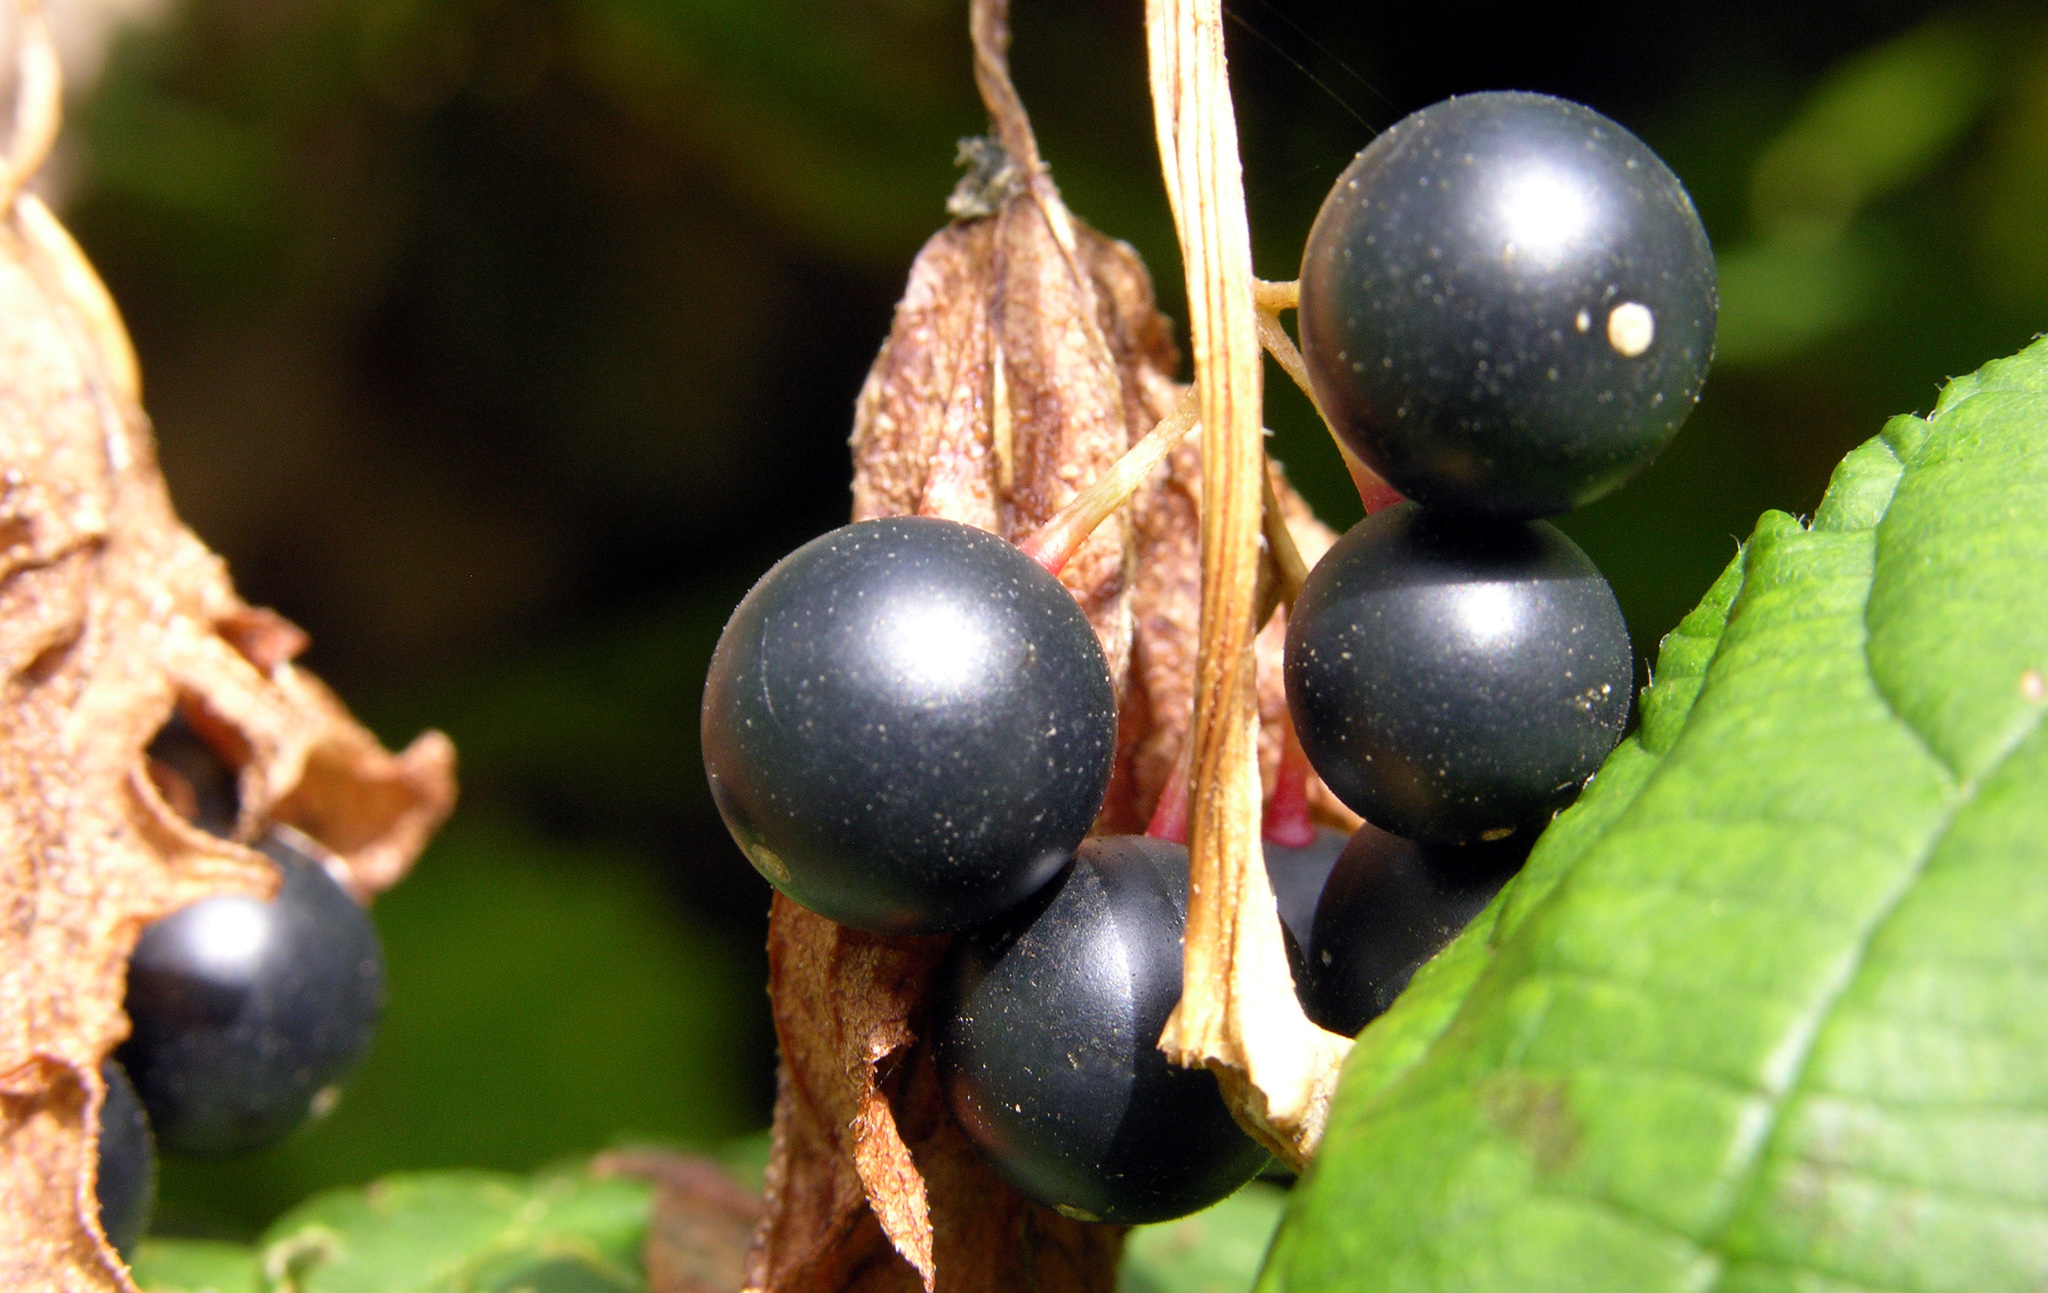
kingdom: Plantae
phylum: Tracheophyta
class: Magnoliopsida
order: Cucurbitales
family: Cucurbitaceae
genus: Bryonia
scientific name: Bryonia alba
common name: White bryony
